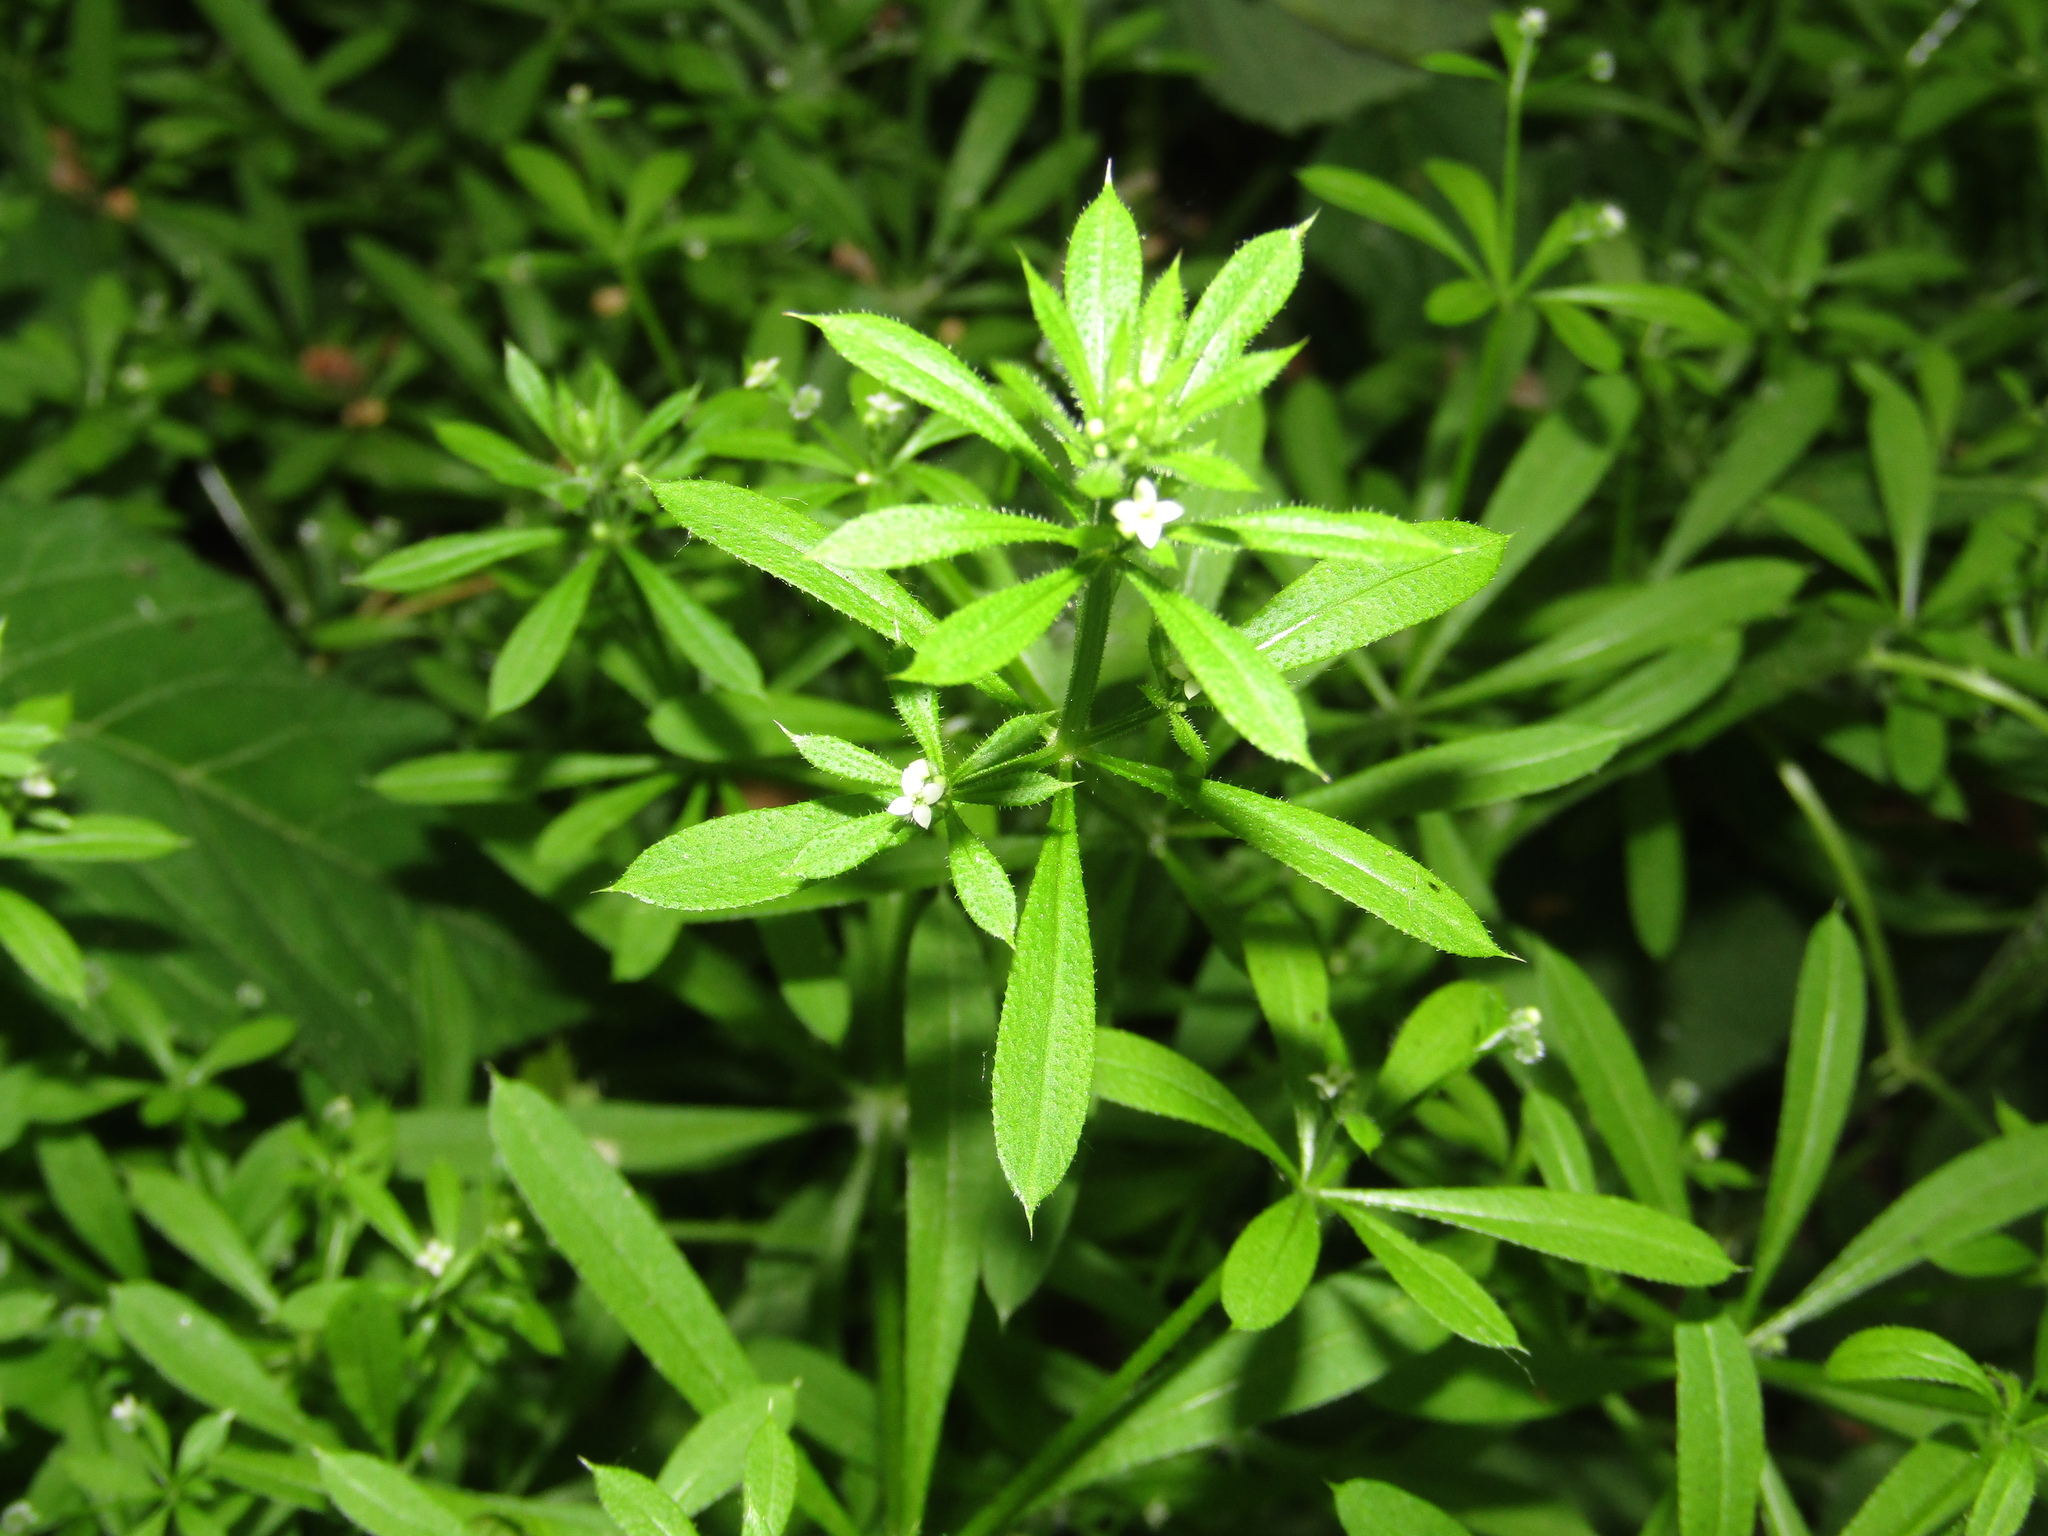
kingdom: Plantae
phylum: Tracheophyta
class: Magnoliopsida
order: Gentianales
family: Rubiaceae
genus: Galium
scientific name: Galium aparine
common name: Cleavers
